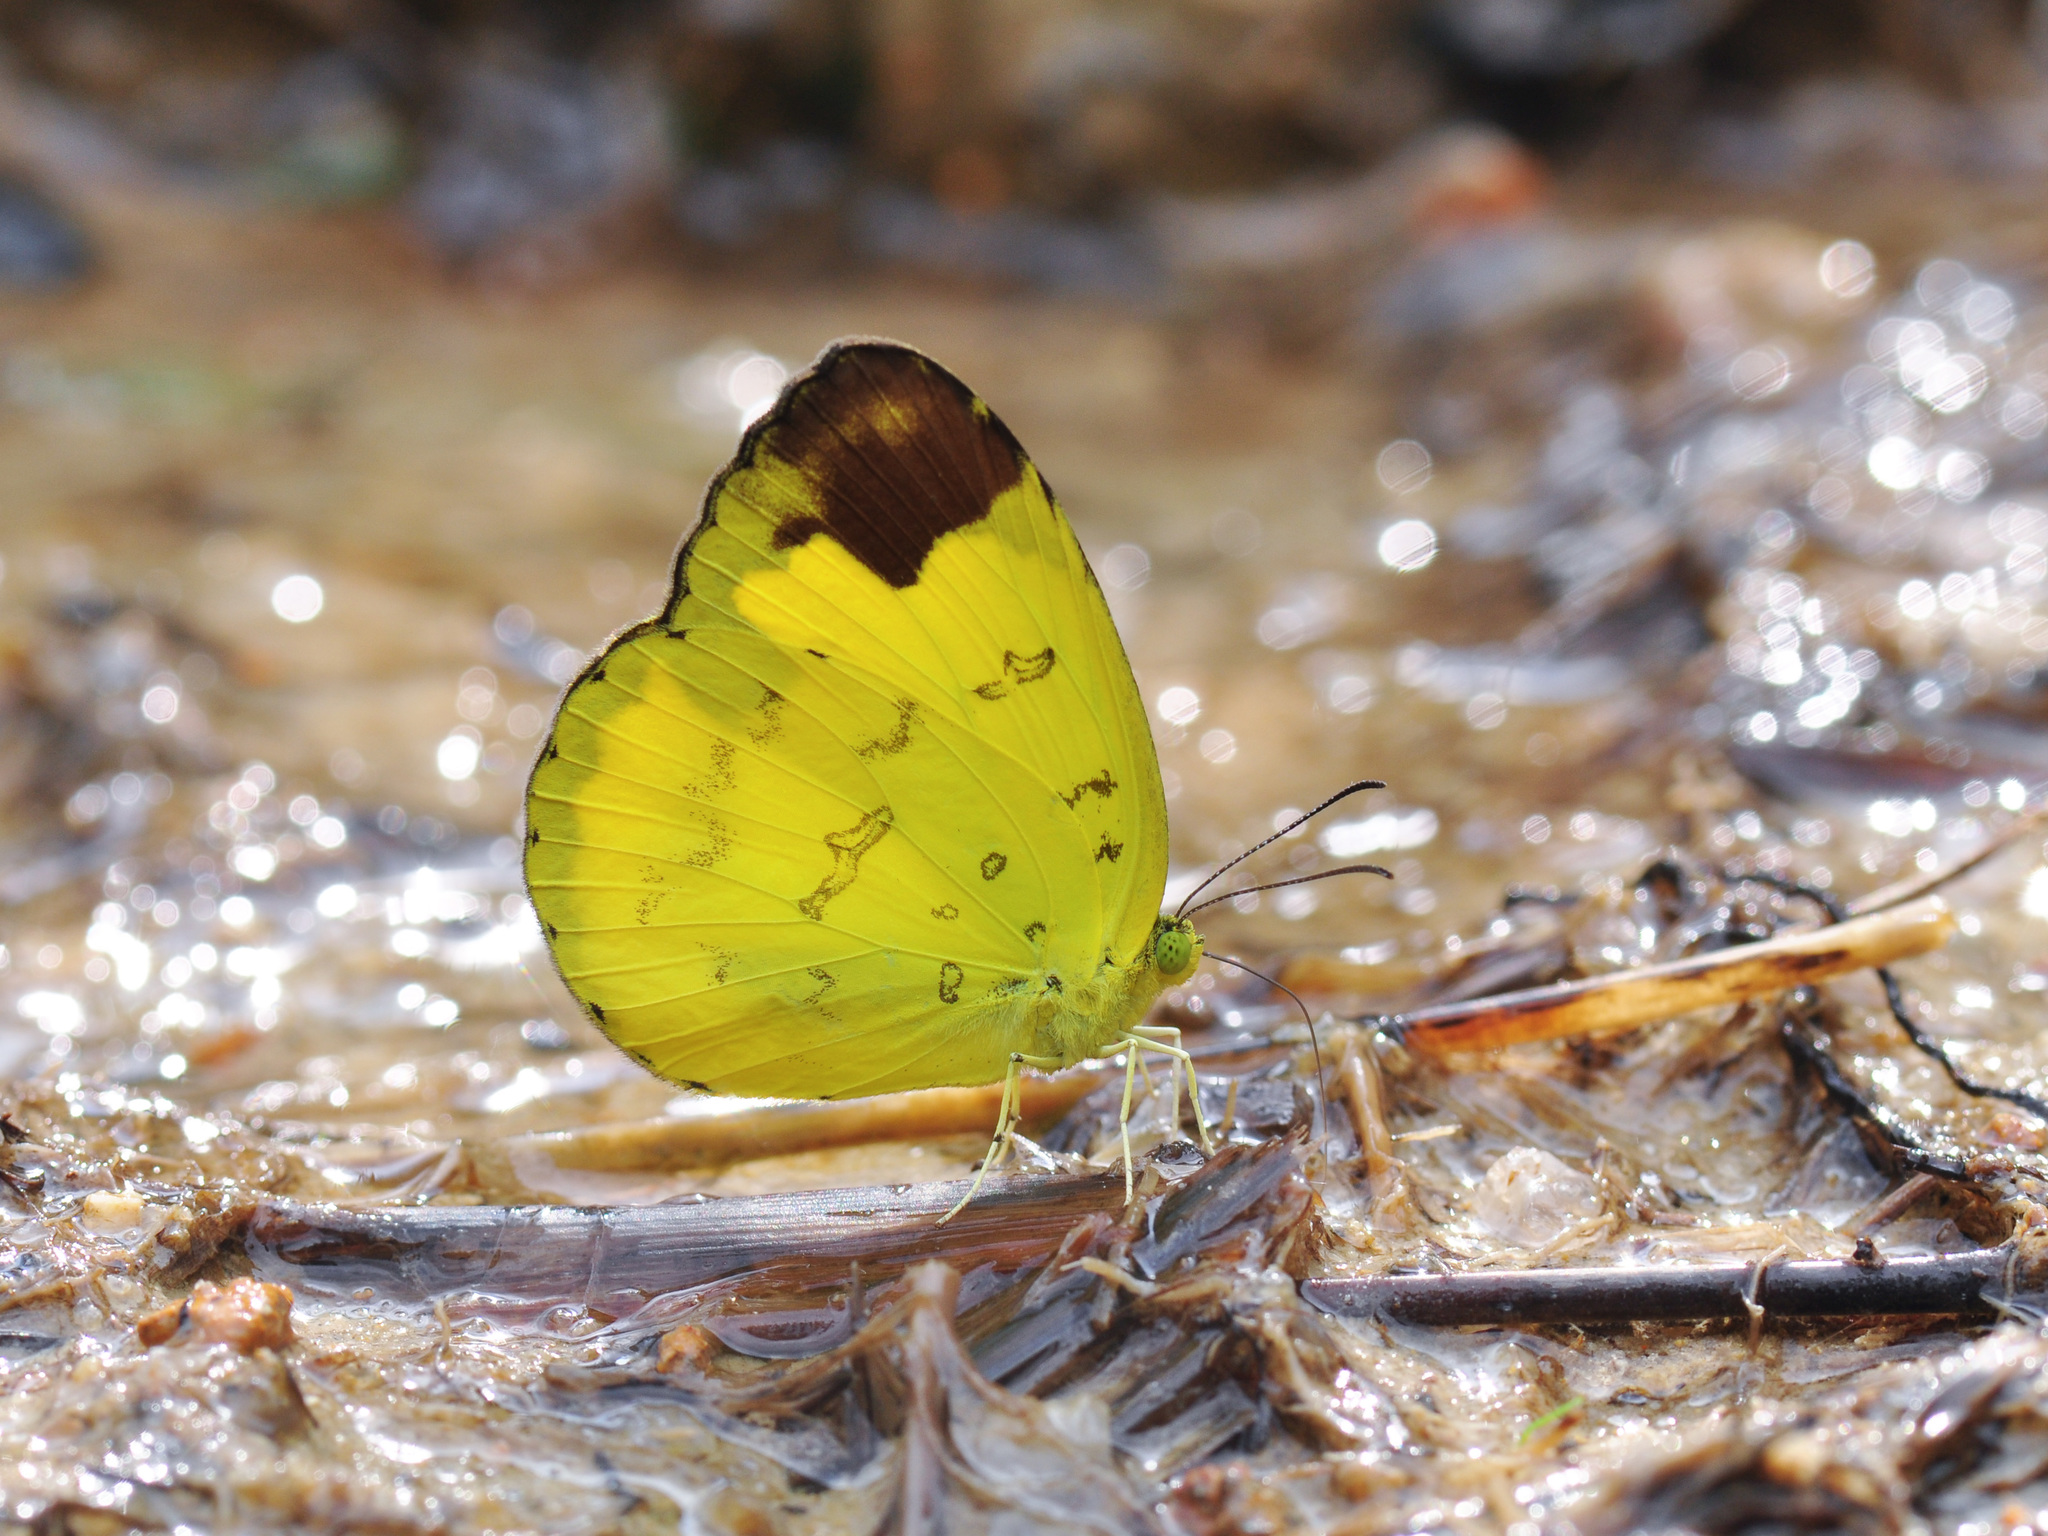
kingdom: Animalia
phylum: Arthropoda
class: Insecta
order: Lepidoptera
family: Pieridae
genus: Eurema
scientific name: Eurema simulatrix
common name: Hill grass yellow
